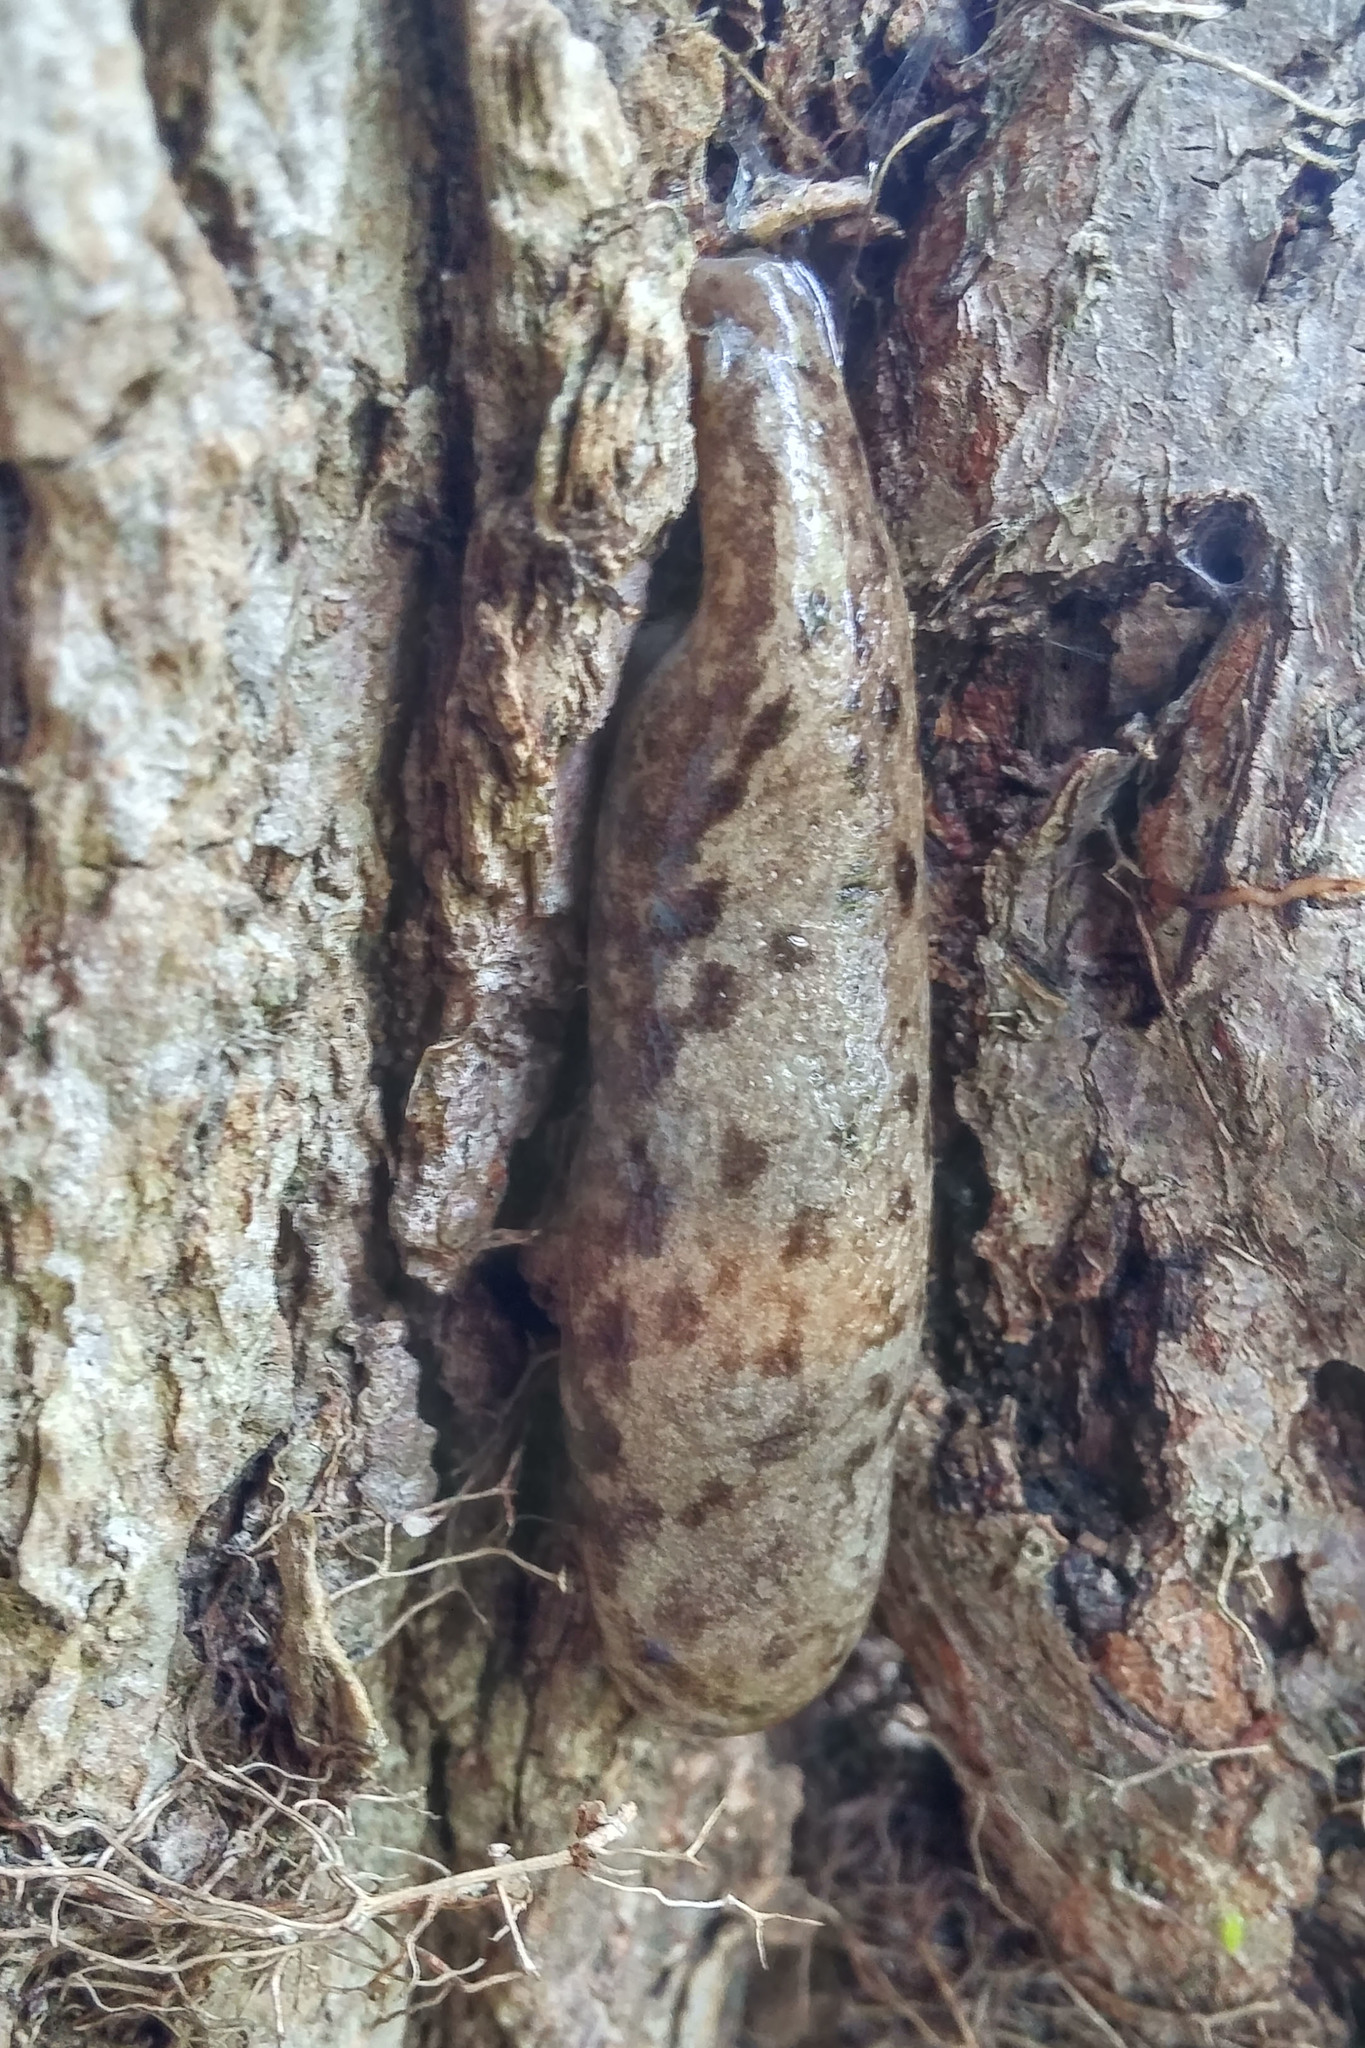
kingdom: Animalia
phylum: Mollusca
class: Gastropoda
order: Stylommatophora
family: Philomycidae
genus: Megapallifera
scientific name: Megapallifera mutabilis
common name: Changeable mantleslug
